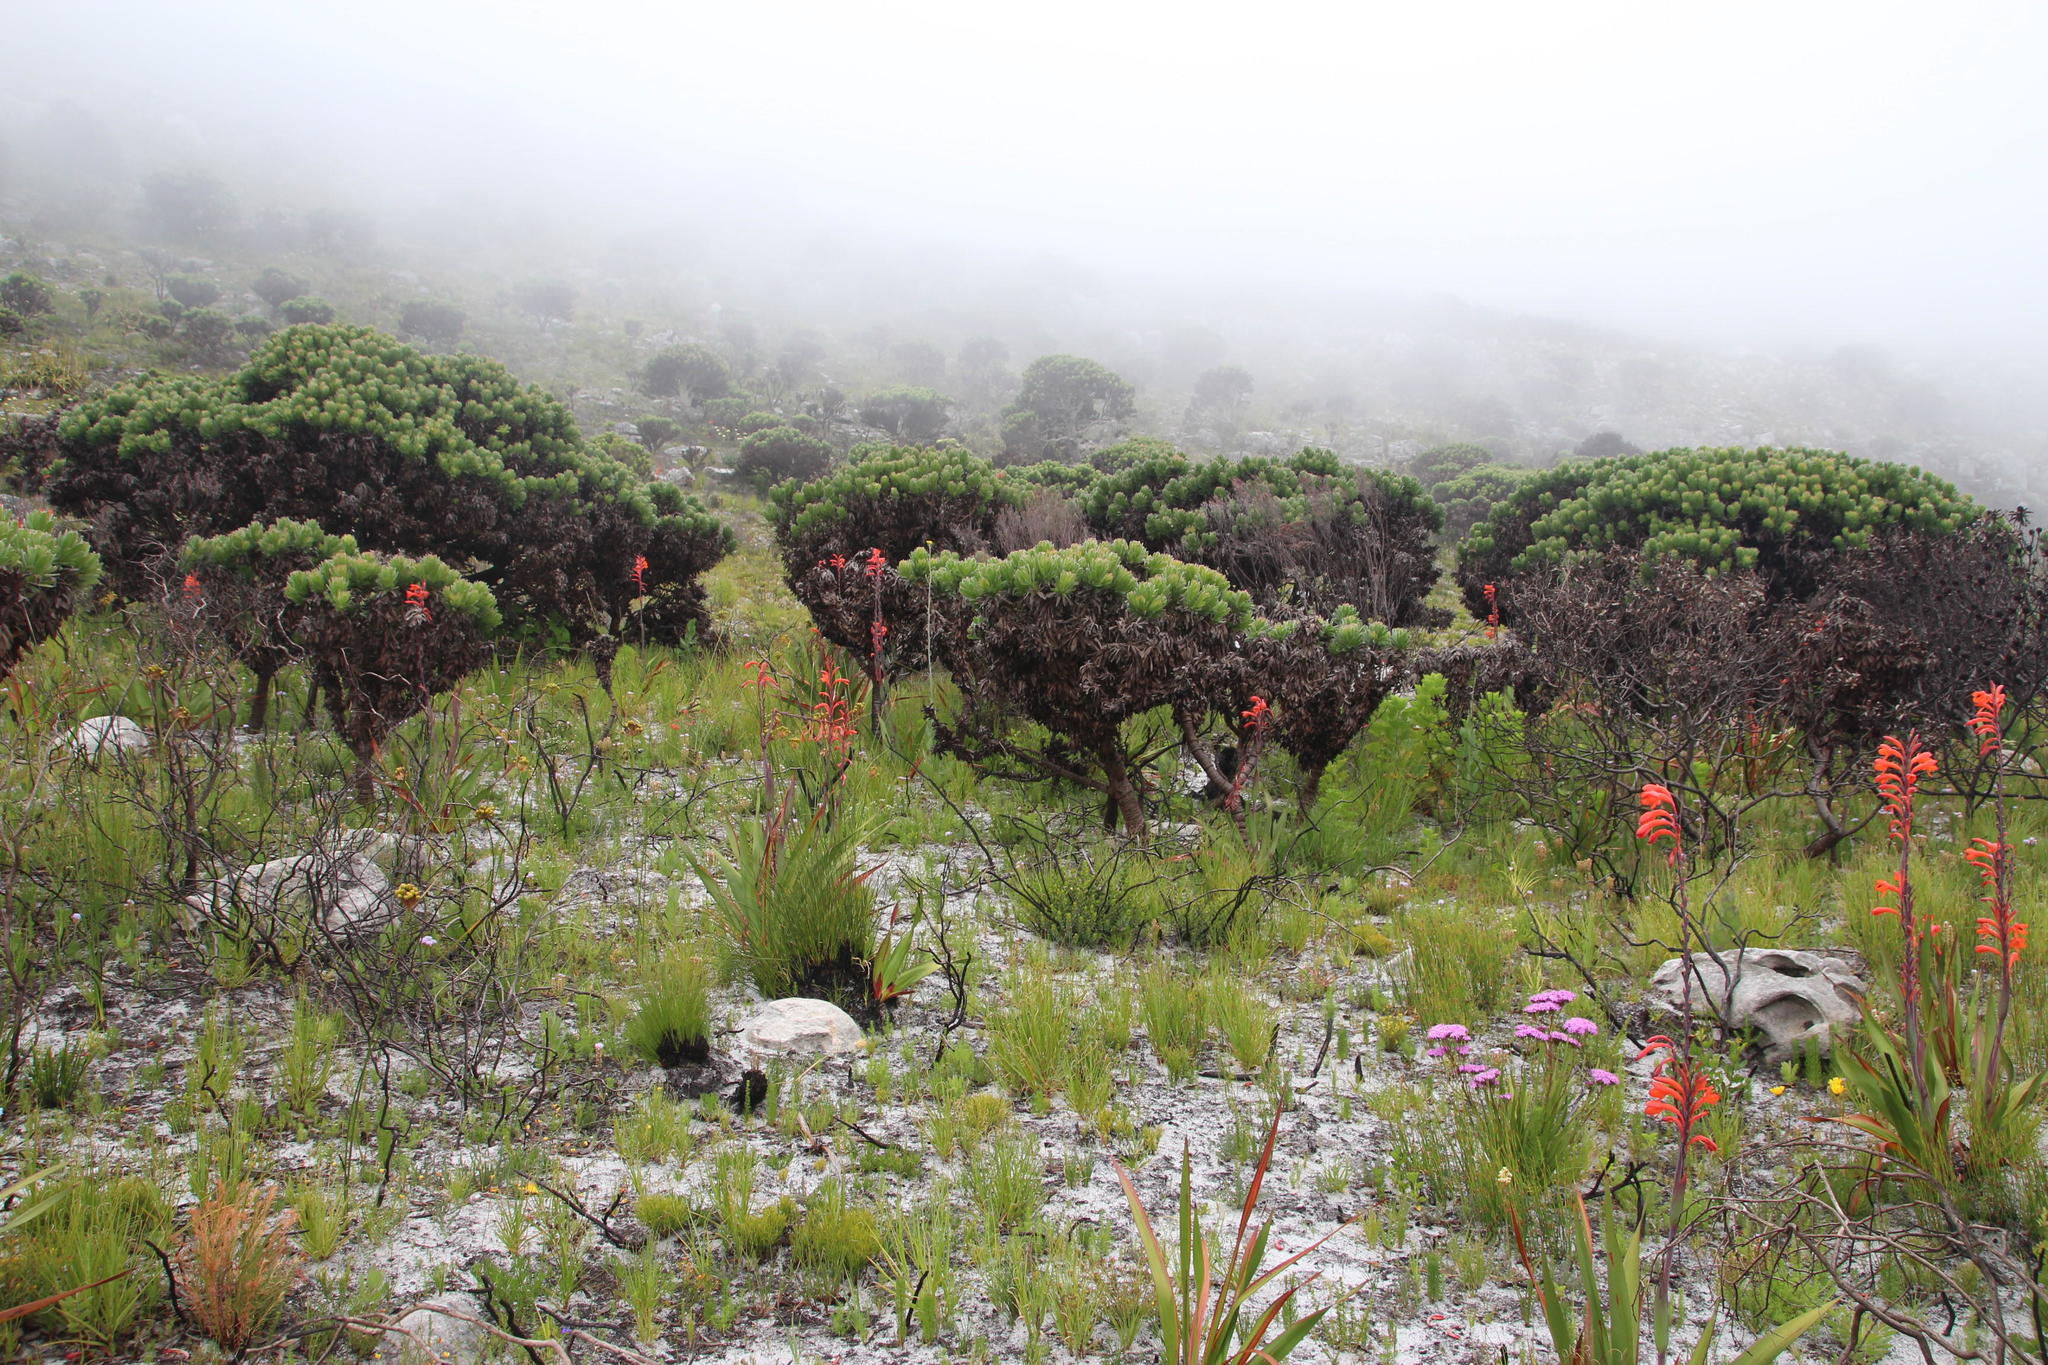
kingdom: Plantae
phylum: Tracheophyta
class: Magnoliopsida
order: Proteales
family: Proteaceae
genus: Mimetes
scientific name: Mimetes fimbriifolius
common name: Fringed bottlebrush
